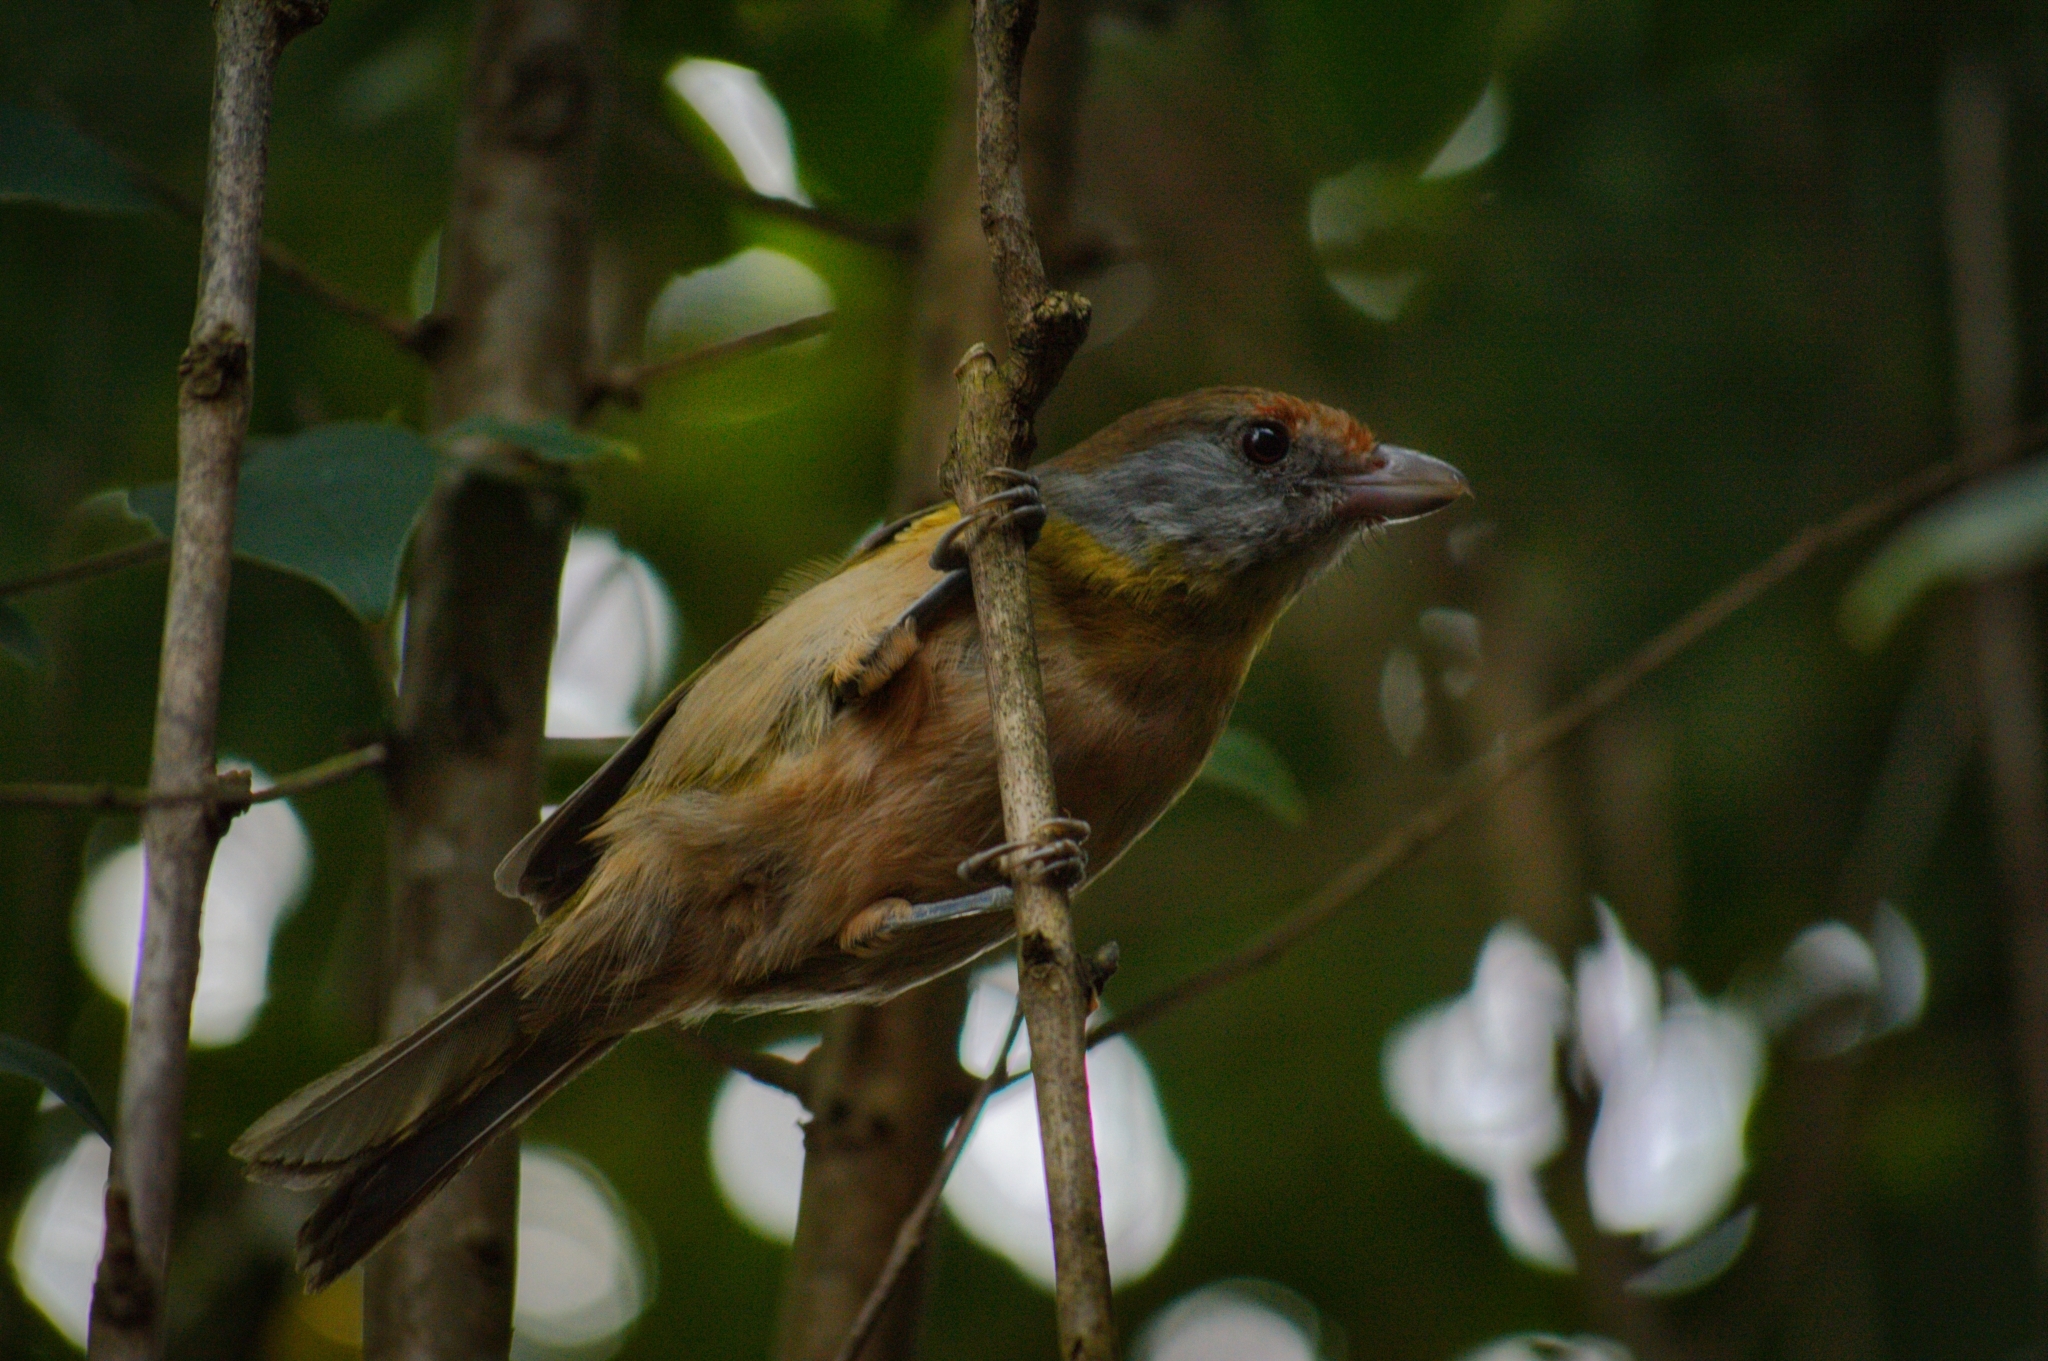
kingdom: Animalia
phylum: Chordata
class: Aves
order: Passeriformes
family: Vireonidae
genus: Cyclarhis
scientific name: Cyclarhis gujanensis
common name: Rufous-browed peppershrike
